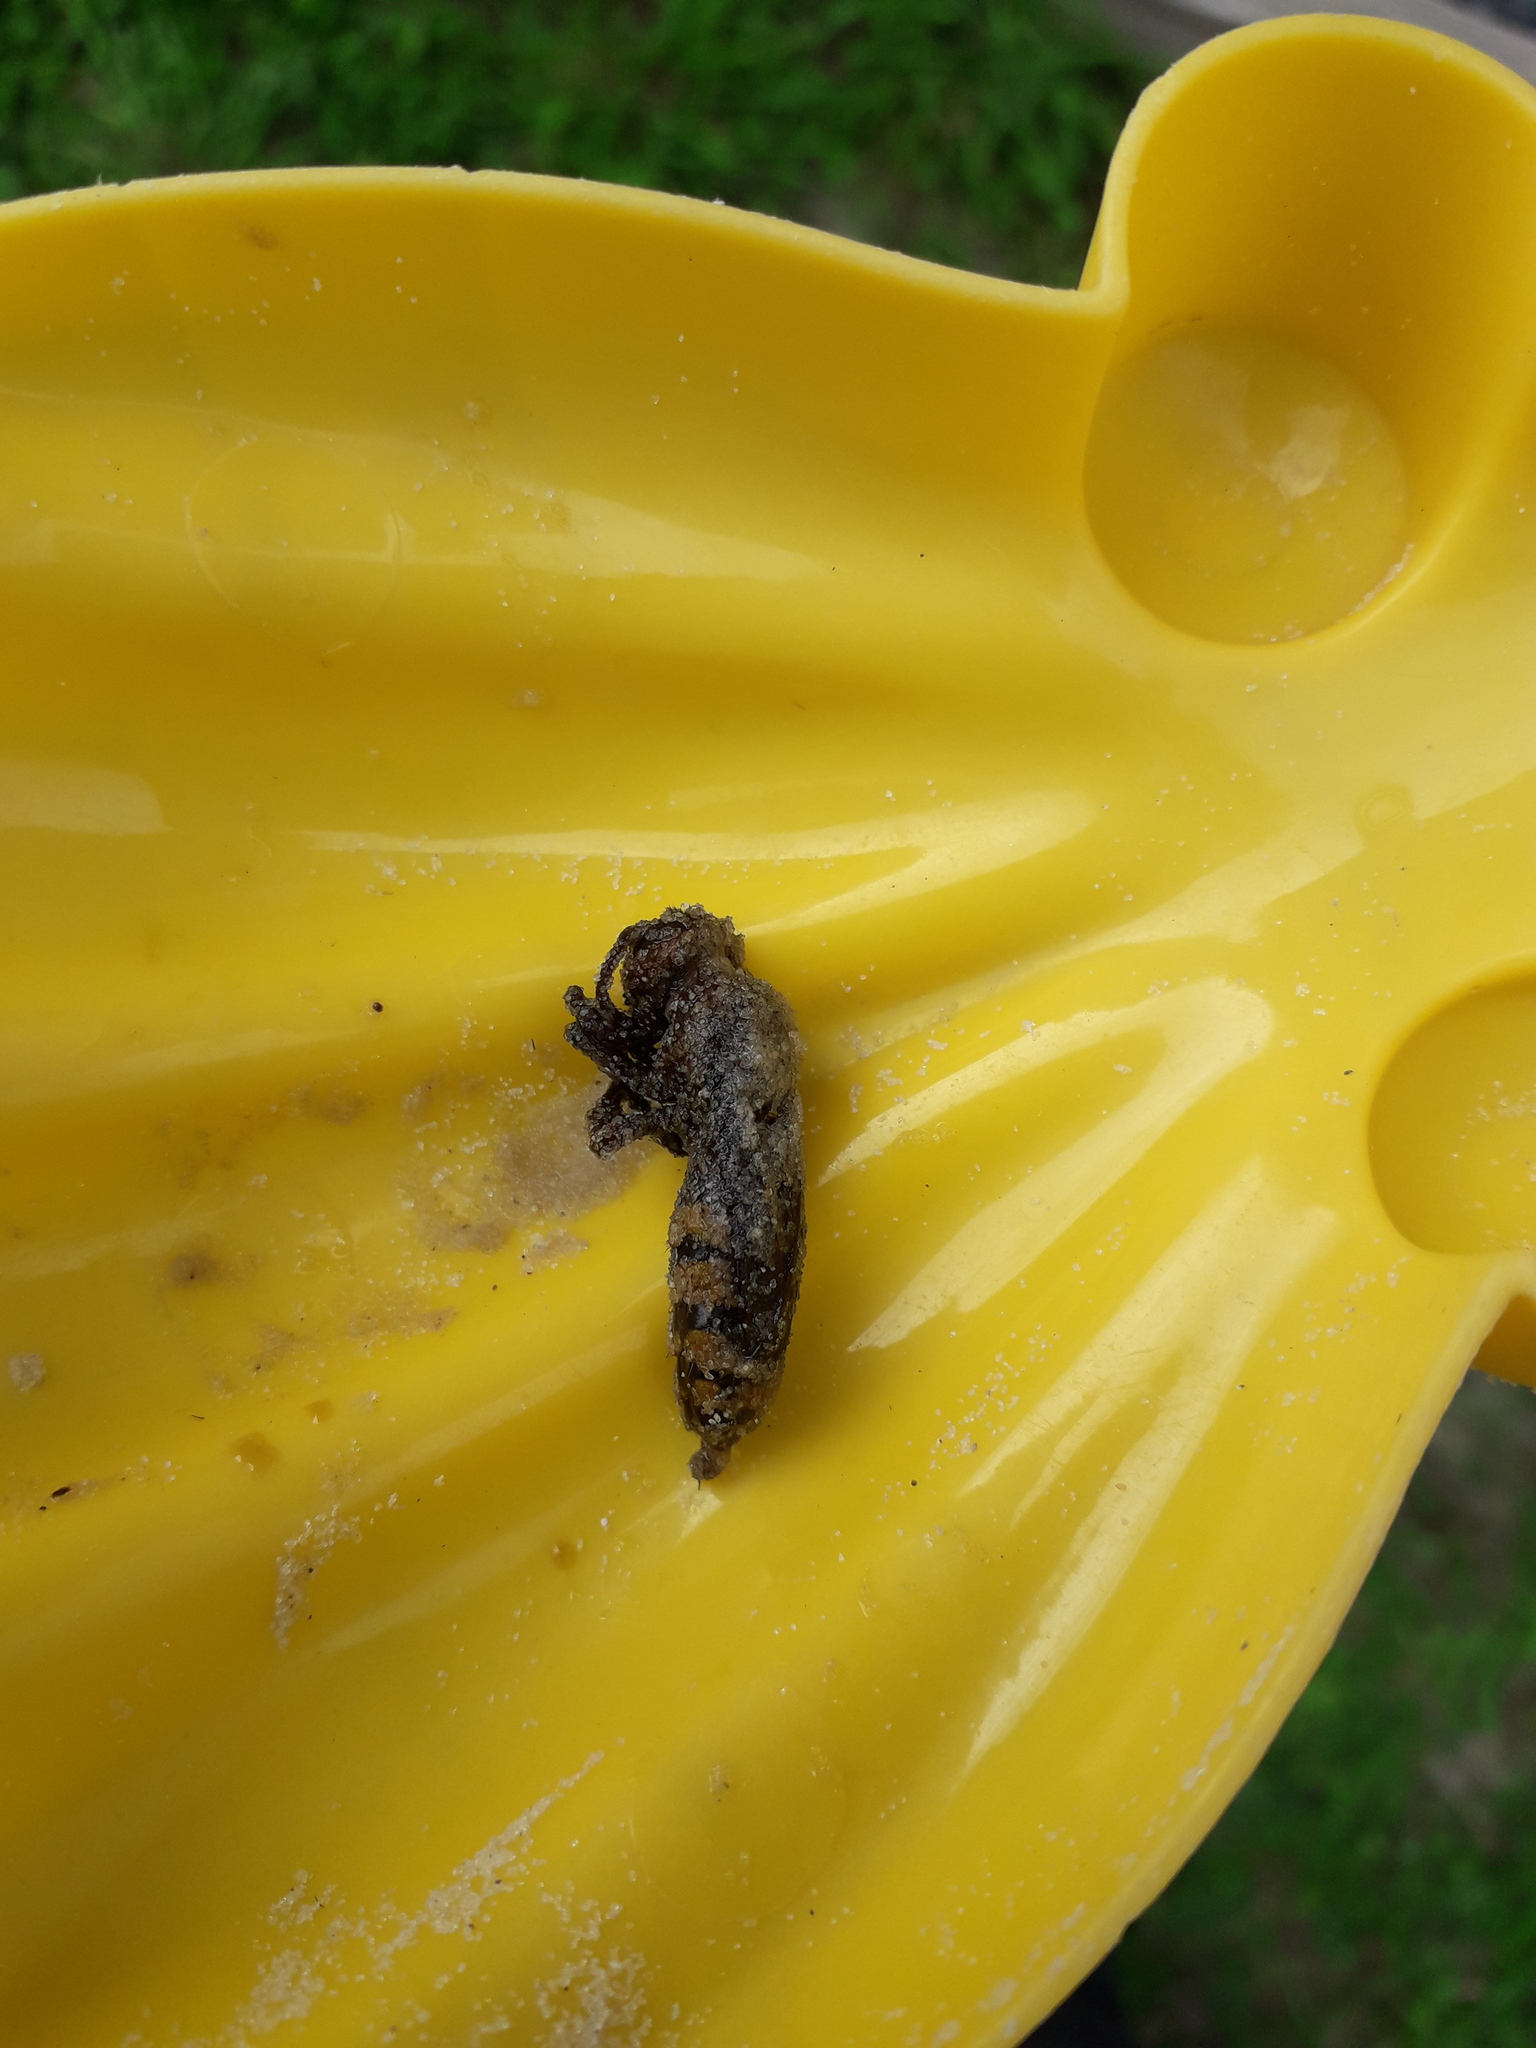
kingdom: Animalia
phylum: Arthropoda
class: Insecta
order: Hymenoptera
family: Vespidae
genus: Vespa
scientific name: Vespa crabro
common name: Hornet
